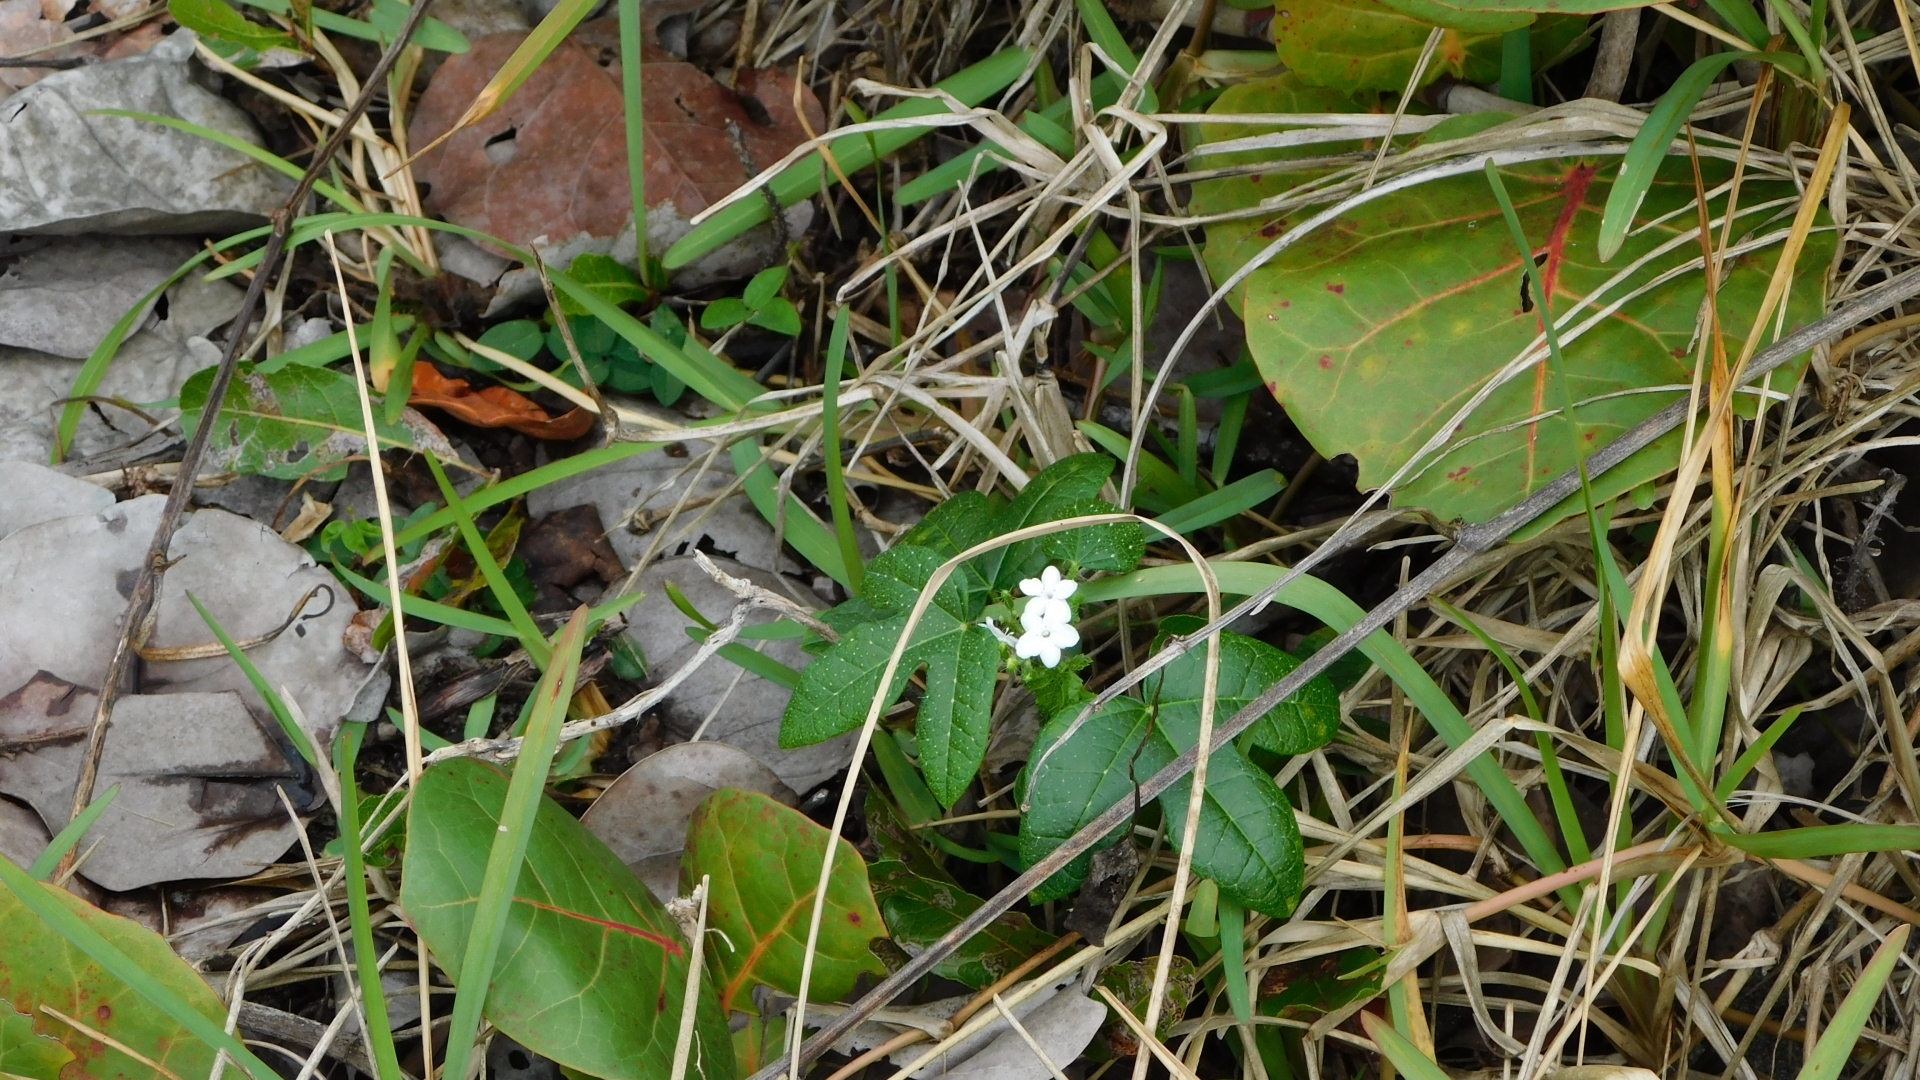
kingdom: Plantae
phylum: Tracheophyta
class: Magnoliopsida
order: Malpighiales
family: Euphorbiaceae
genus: Cnidoscolus
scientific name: Cnidoscolus stimulosus
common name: Bull-nettle
